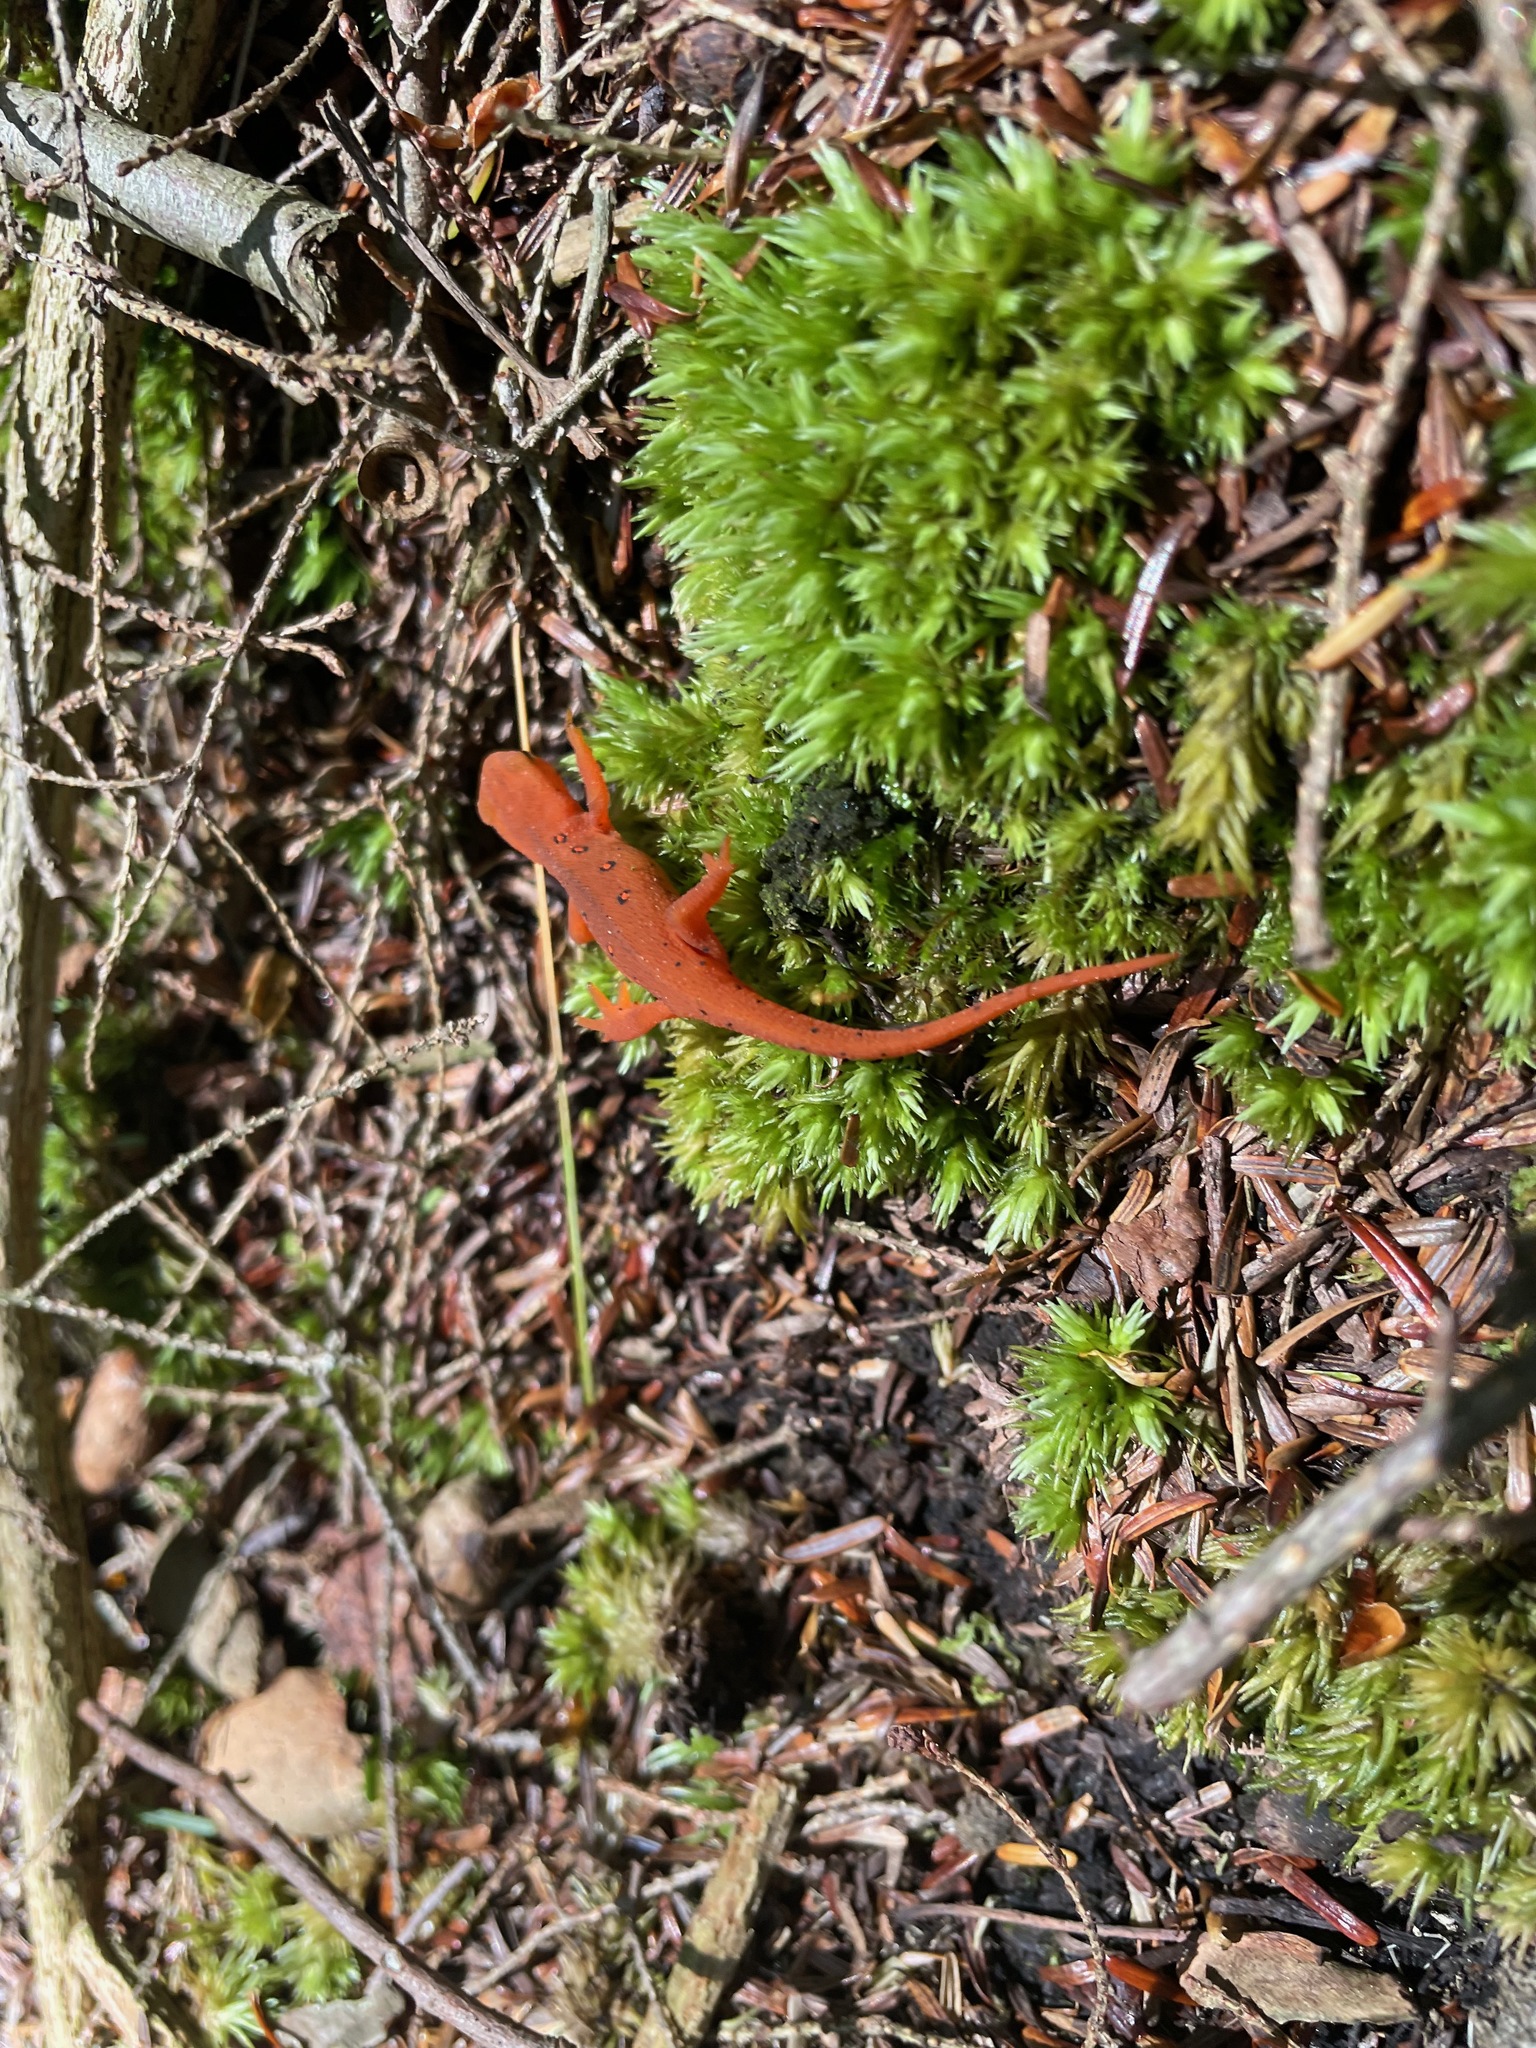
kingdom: Animalia
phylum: Chordata
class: Amphibia
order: Caudata
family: Salamandridae
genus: Notophthalmus
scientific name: Notophthalmus viridescens
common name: Eastern newt
